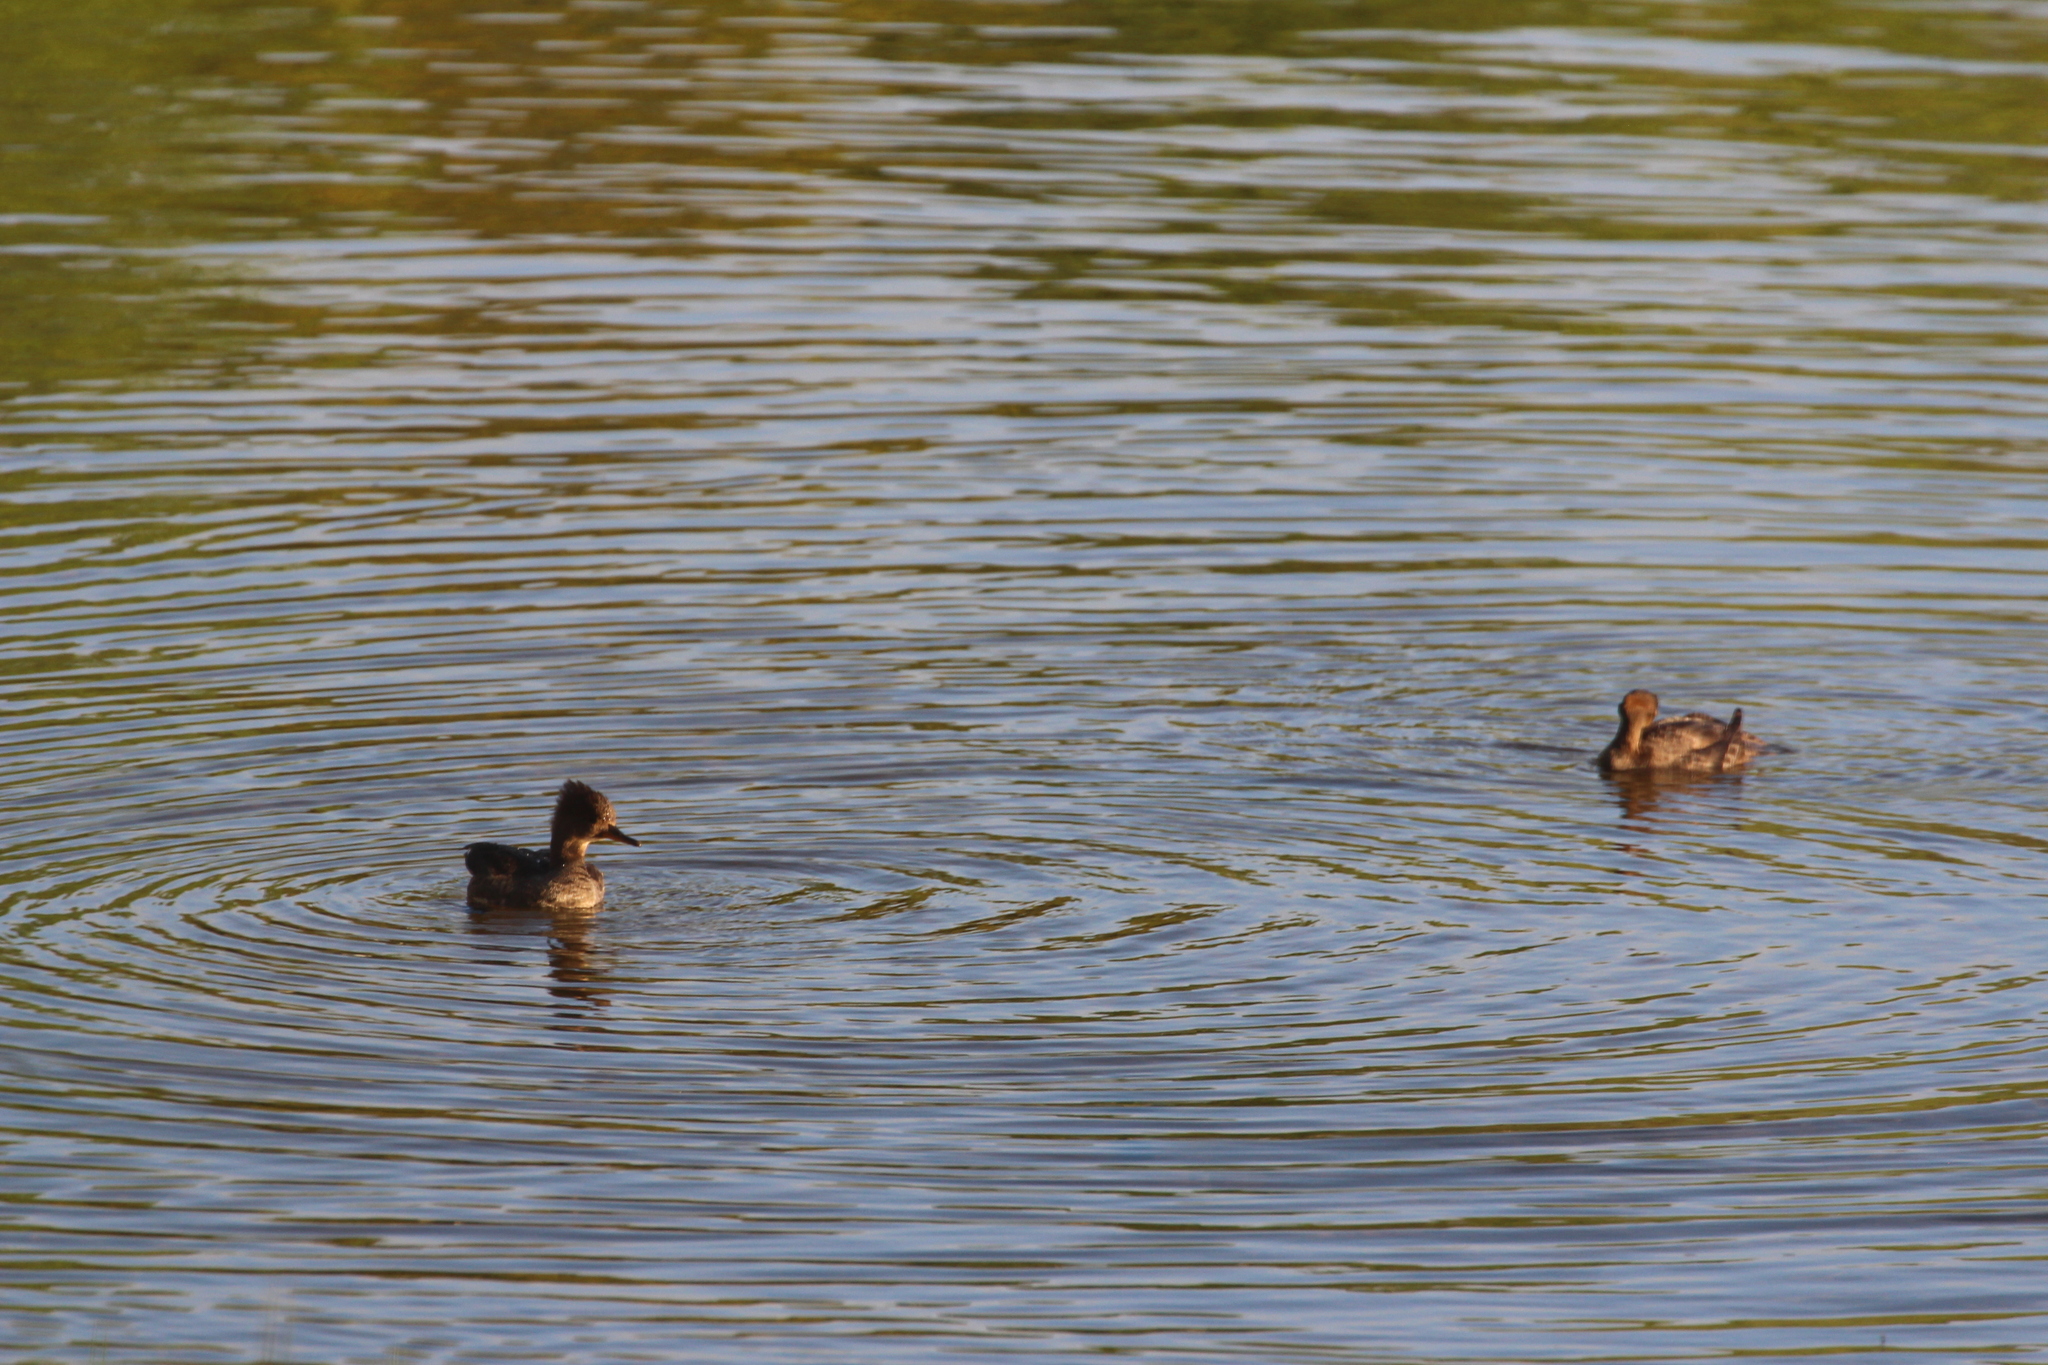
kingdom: Animalia
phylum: Chordata
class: Aves
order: Anseriformes
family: Anatidae
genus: Lophodytes
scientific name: Lophodytes cucullatus
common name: Hooded merganser
